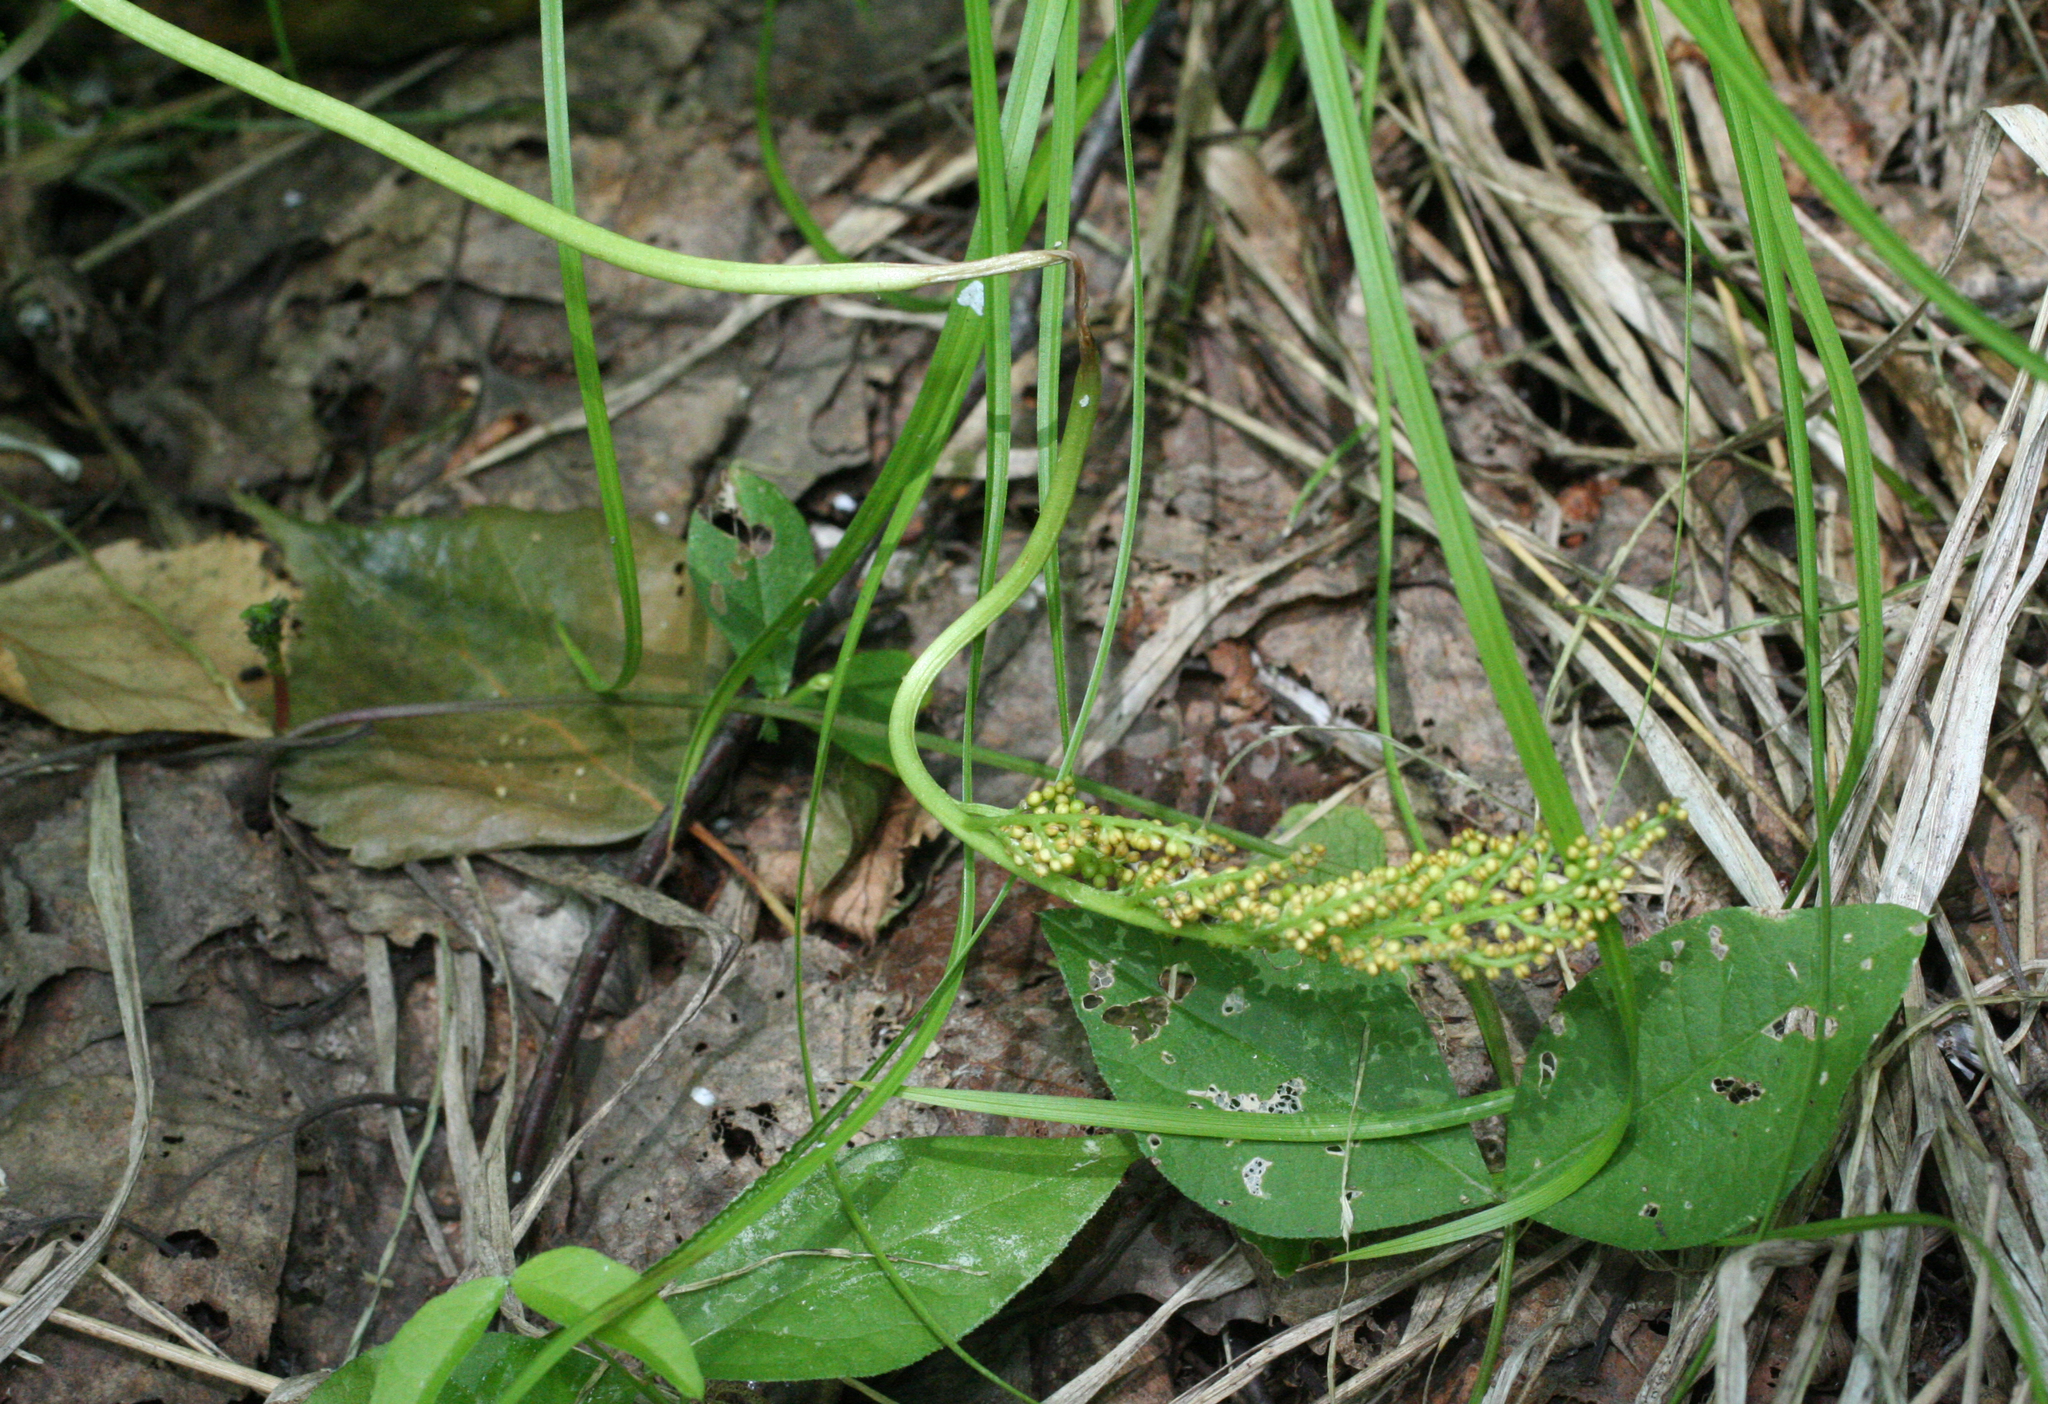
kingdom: Plantae
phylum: Tracheophyta
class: Polypodiopsida
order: Ophioglossales
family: Ophioglossaceae
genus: Botrypus
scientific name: Botrypus virginianus
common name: Common grapefern
